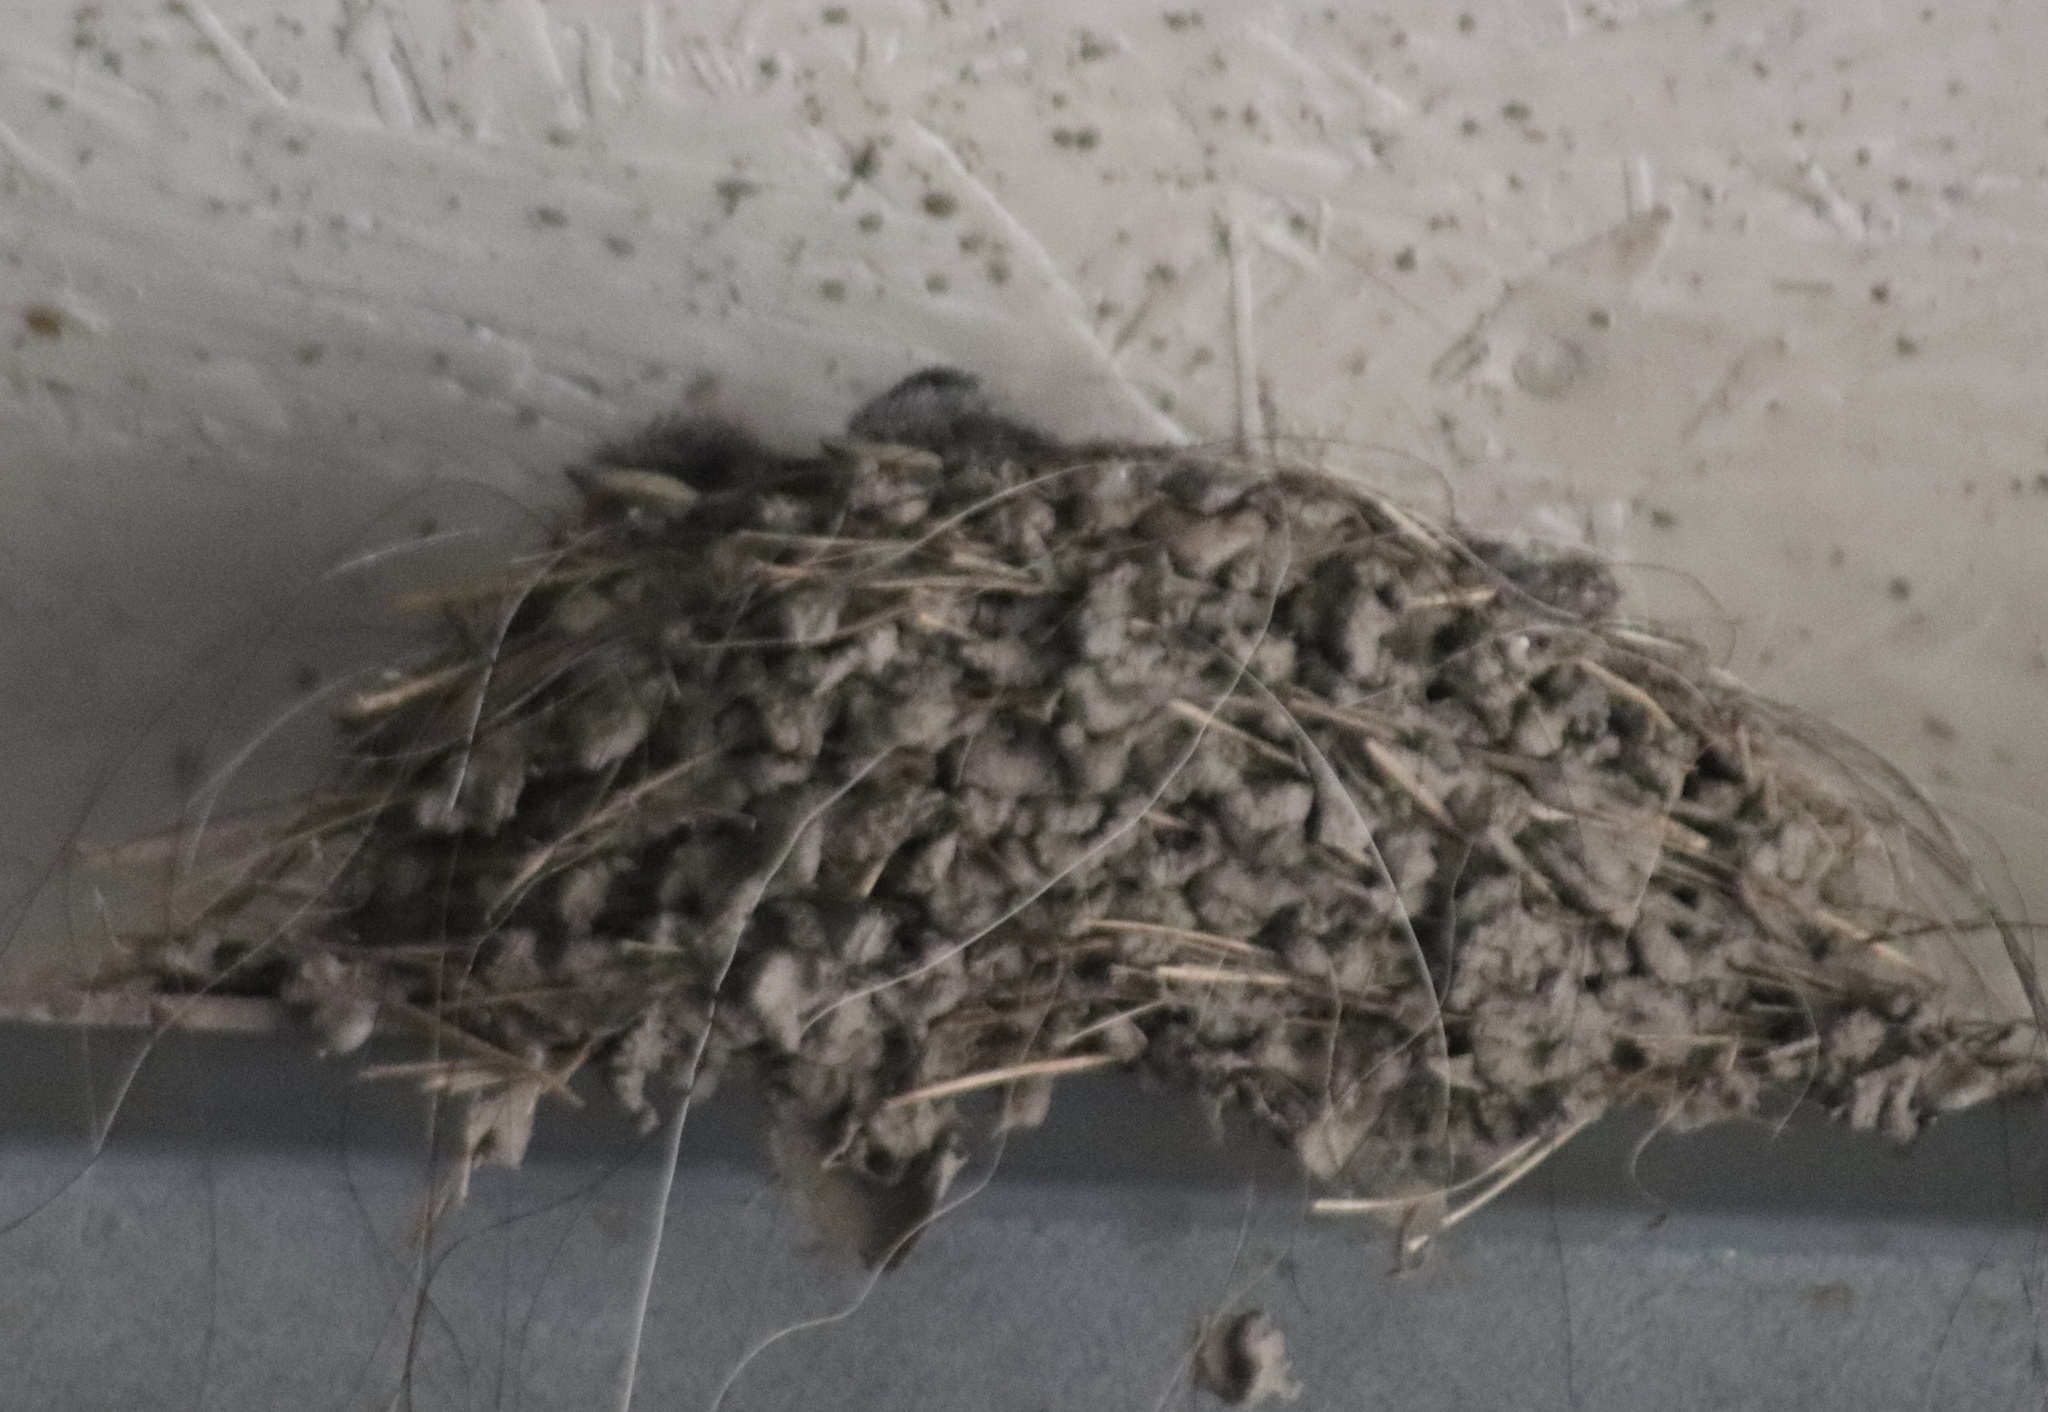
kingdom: Animalia
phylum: Chordata
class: Aves
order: Passeriformes
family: Hirundinidae
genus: Hirundo
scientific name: Hirundo rustica
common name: Barn swallow
